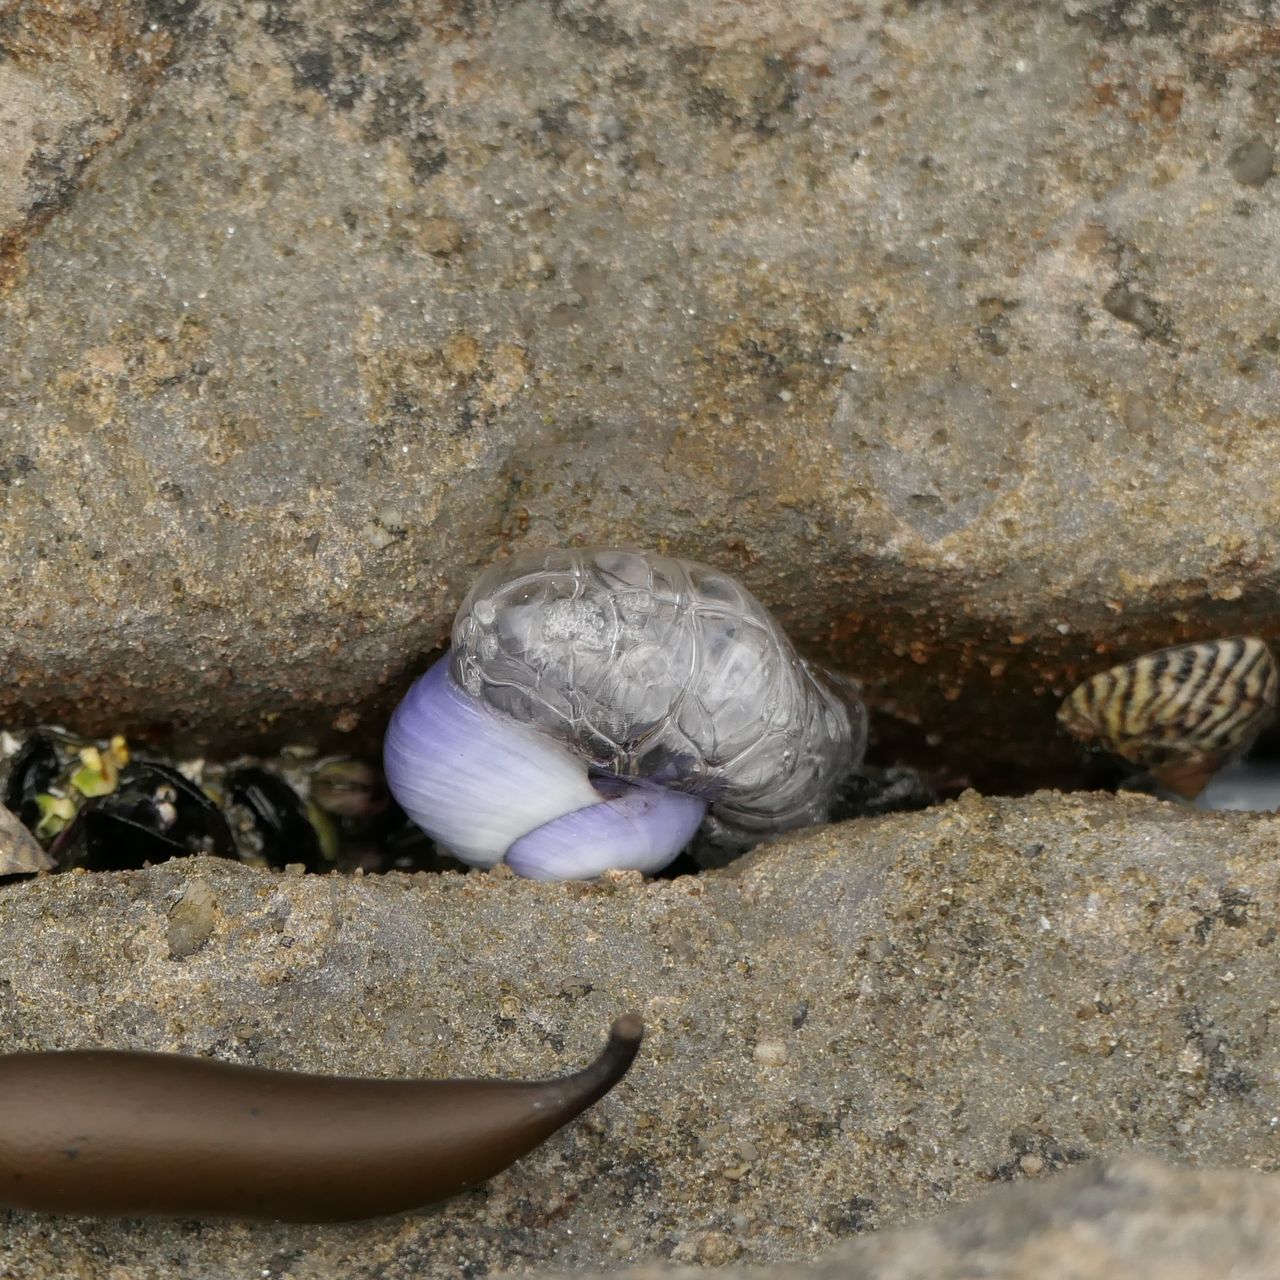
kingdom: Animalia
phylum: Mollusca
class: Gastropoda
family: Epitoniidae
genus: Janthina
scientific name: Janthina janthina
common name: Common janthina
